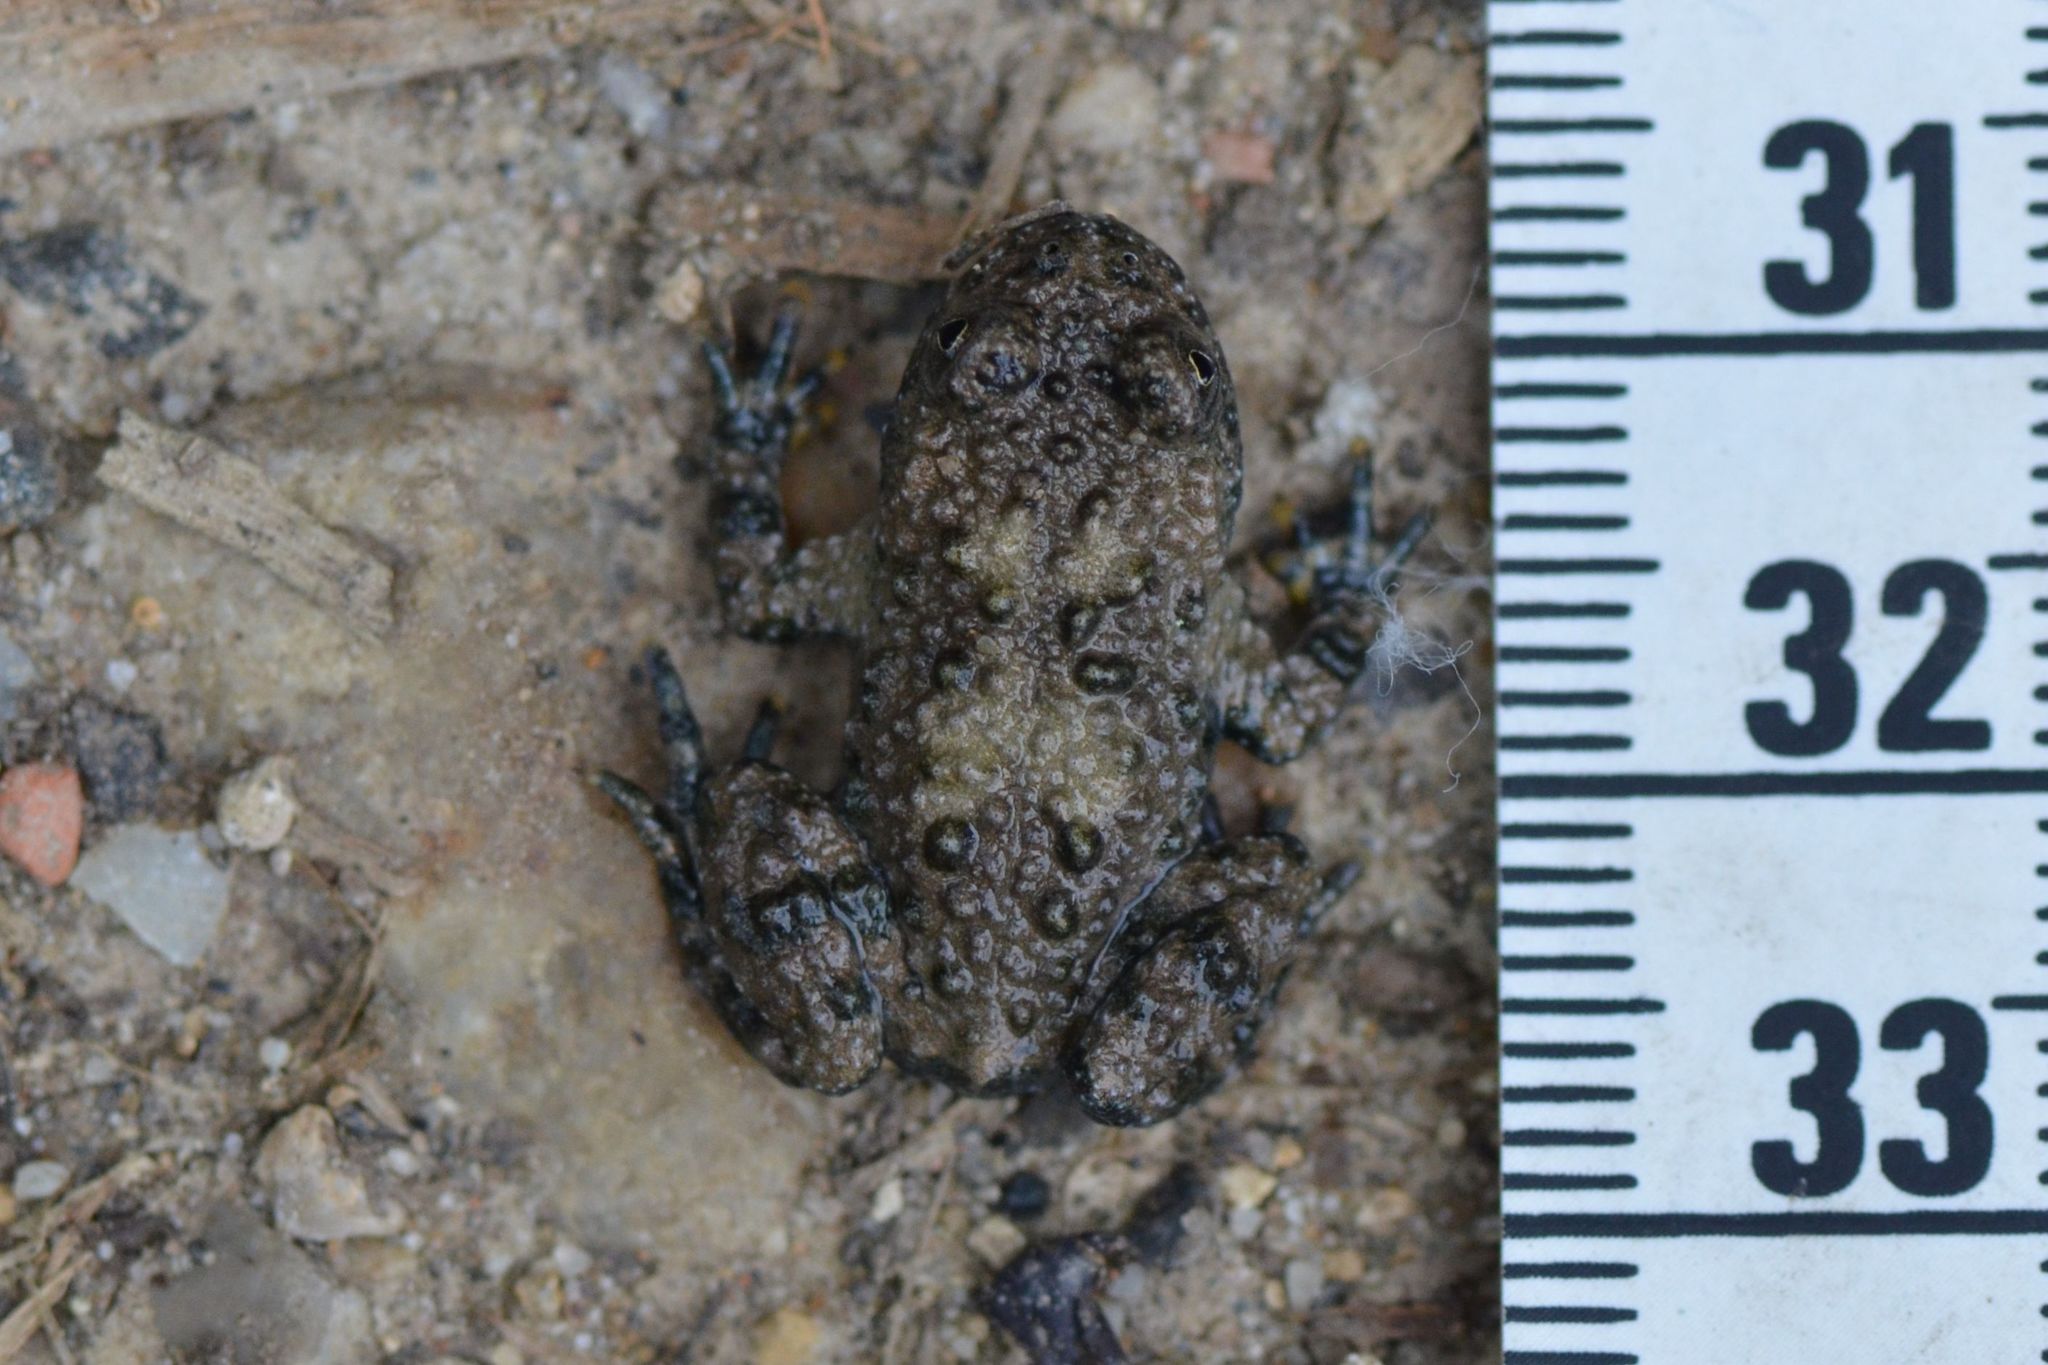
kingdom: Animalia
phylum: Chordata
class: Amphibia
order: Anura
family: Bombinatoridae
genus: Bombina
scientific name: Bombina variegata
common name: Yellow-bellied toad
